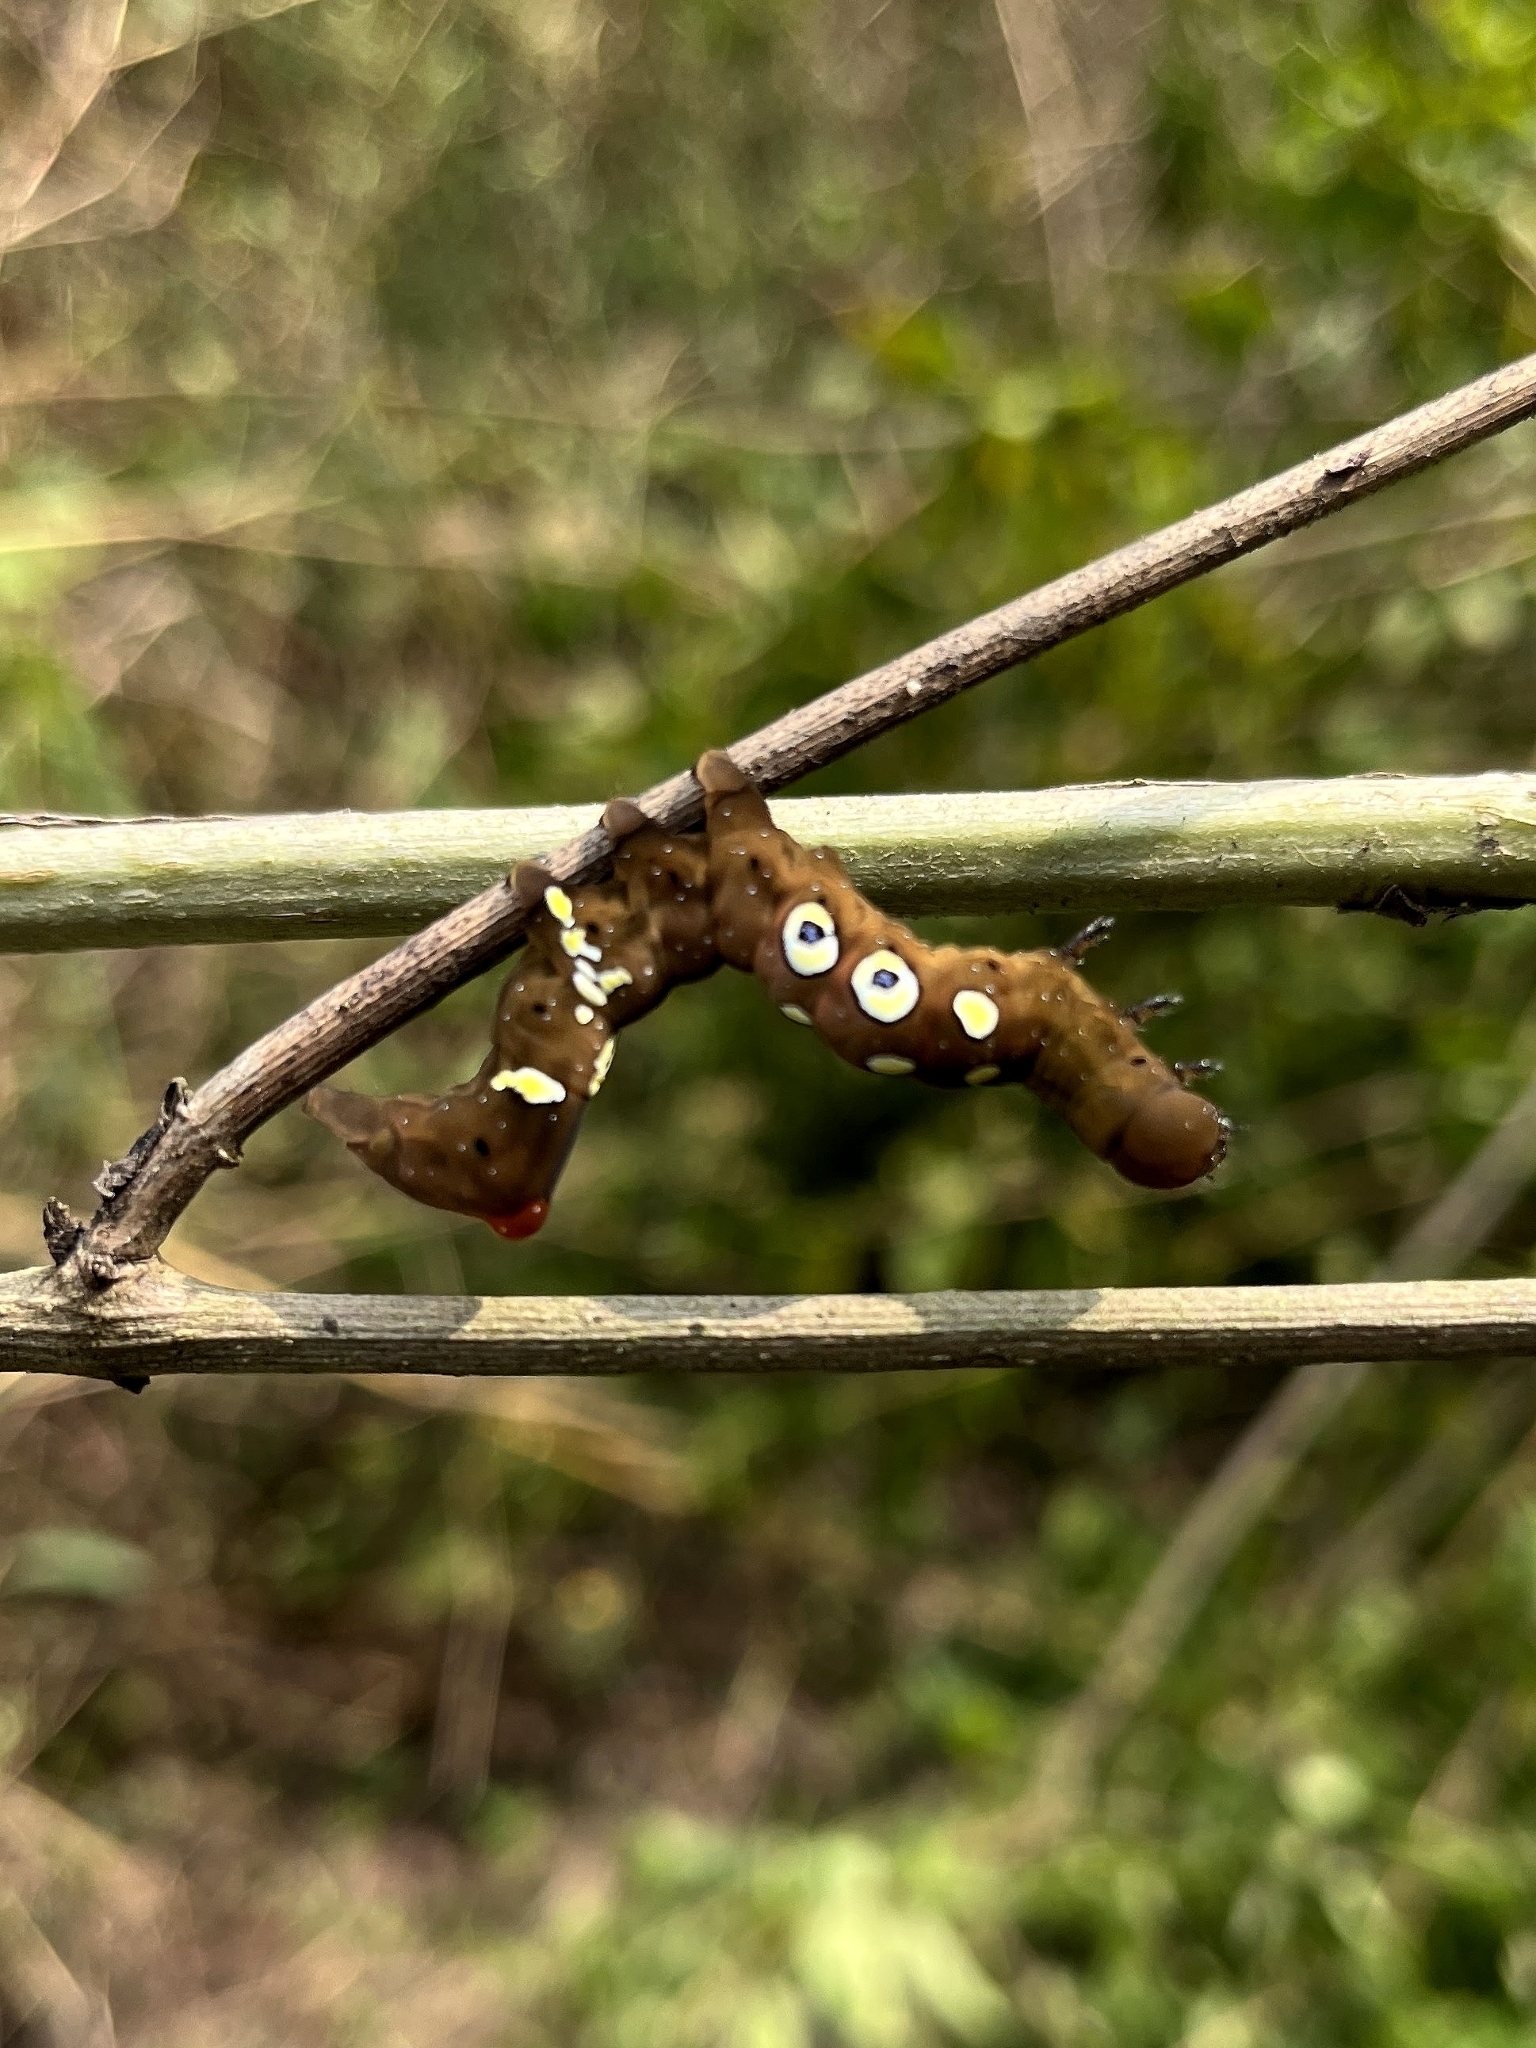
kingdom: Animalia
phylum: Arthropoda
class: Insecta
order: Lepidoptera
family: Erebidae
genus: Eudocima
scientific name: Eudocima homaena
